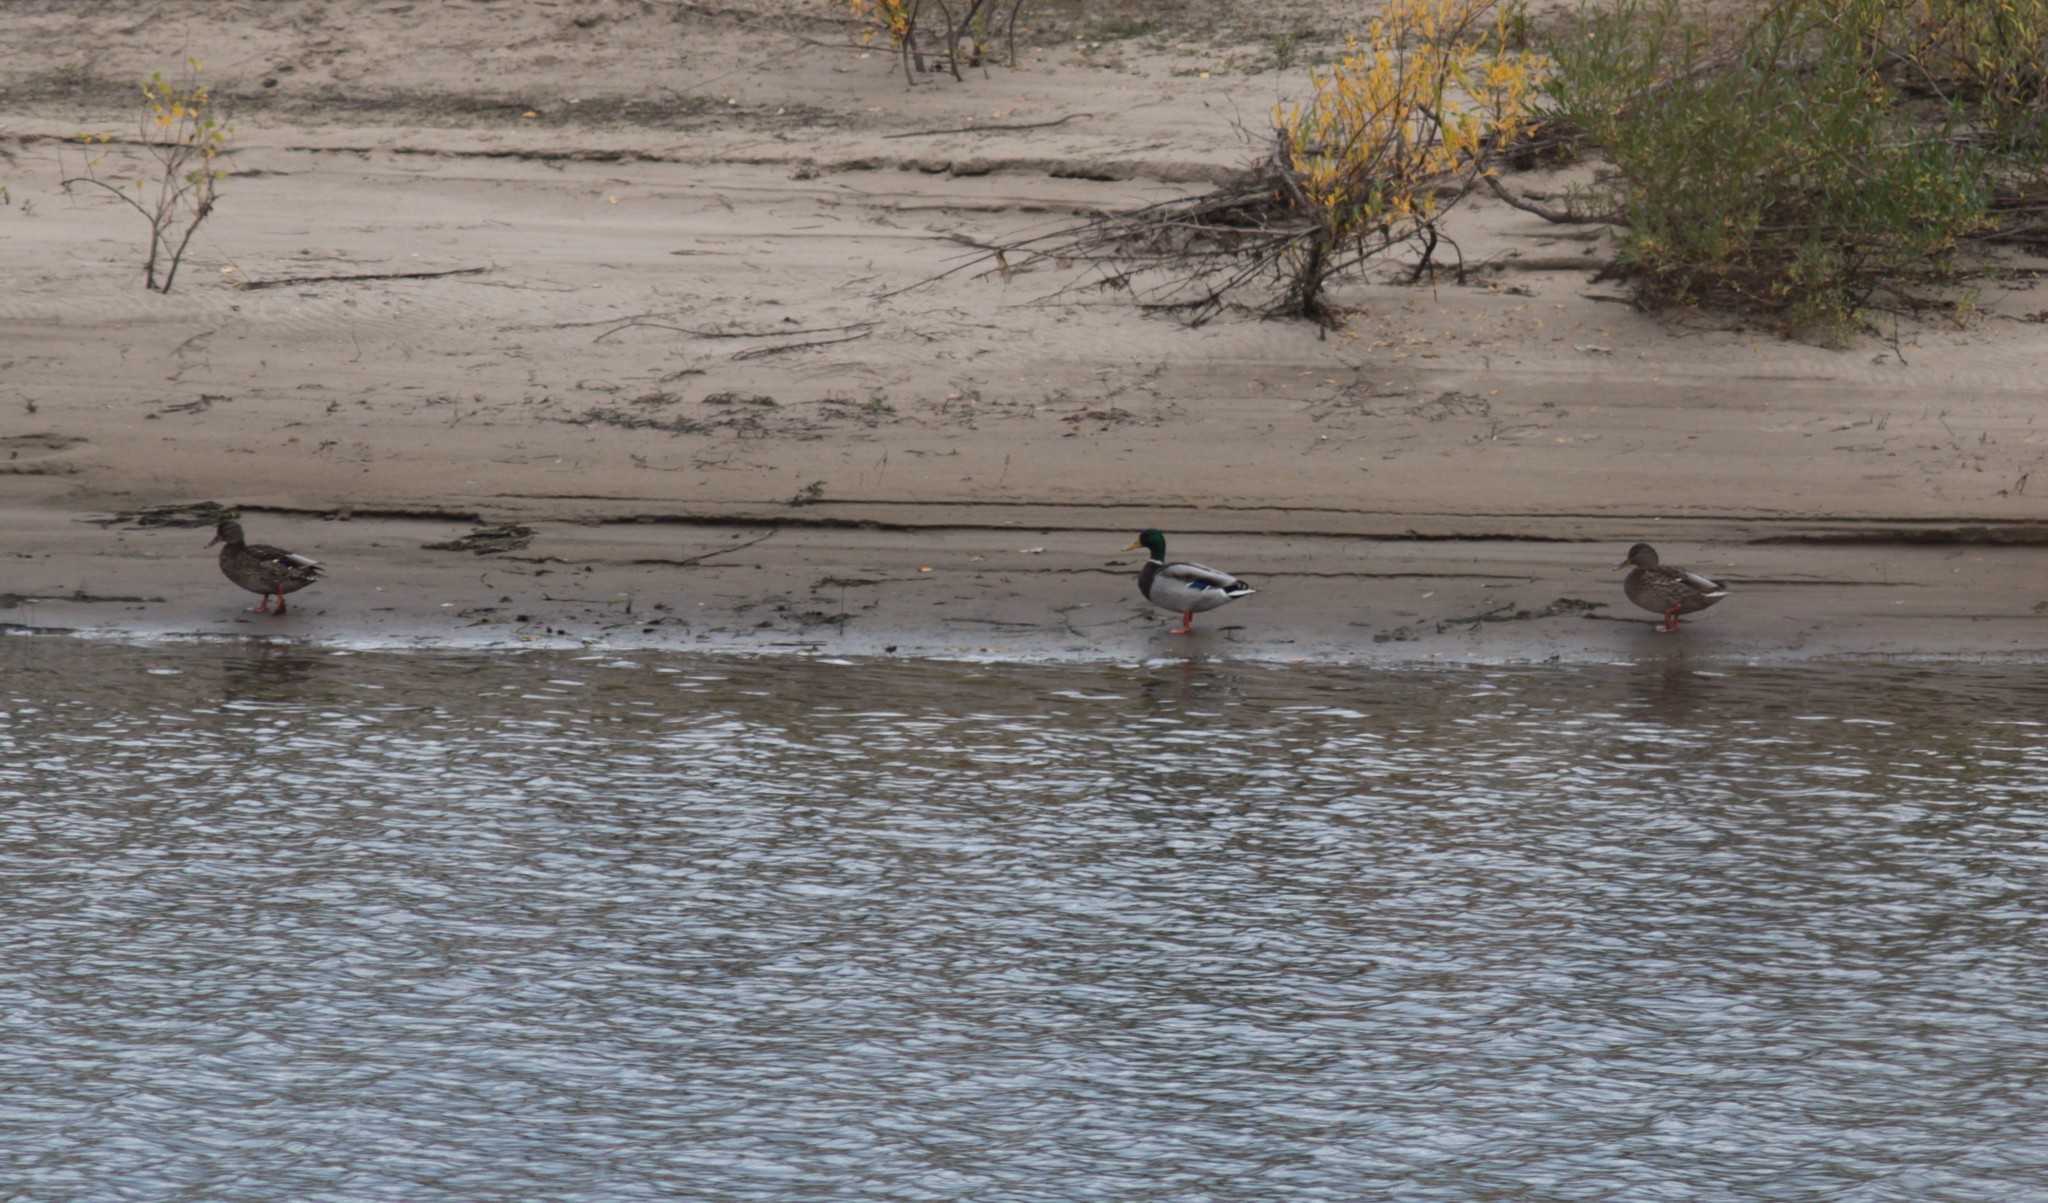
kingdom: Animalia
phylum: Chordata
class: Aves
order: Anseriformes
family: Anatidae
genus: Anas
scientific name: Anas platyrhynchos
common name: Mallard
